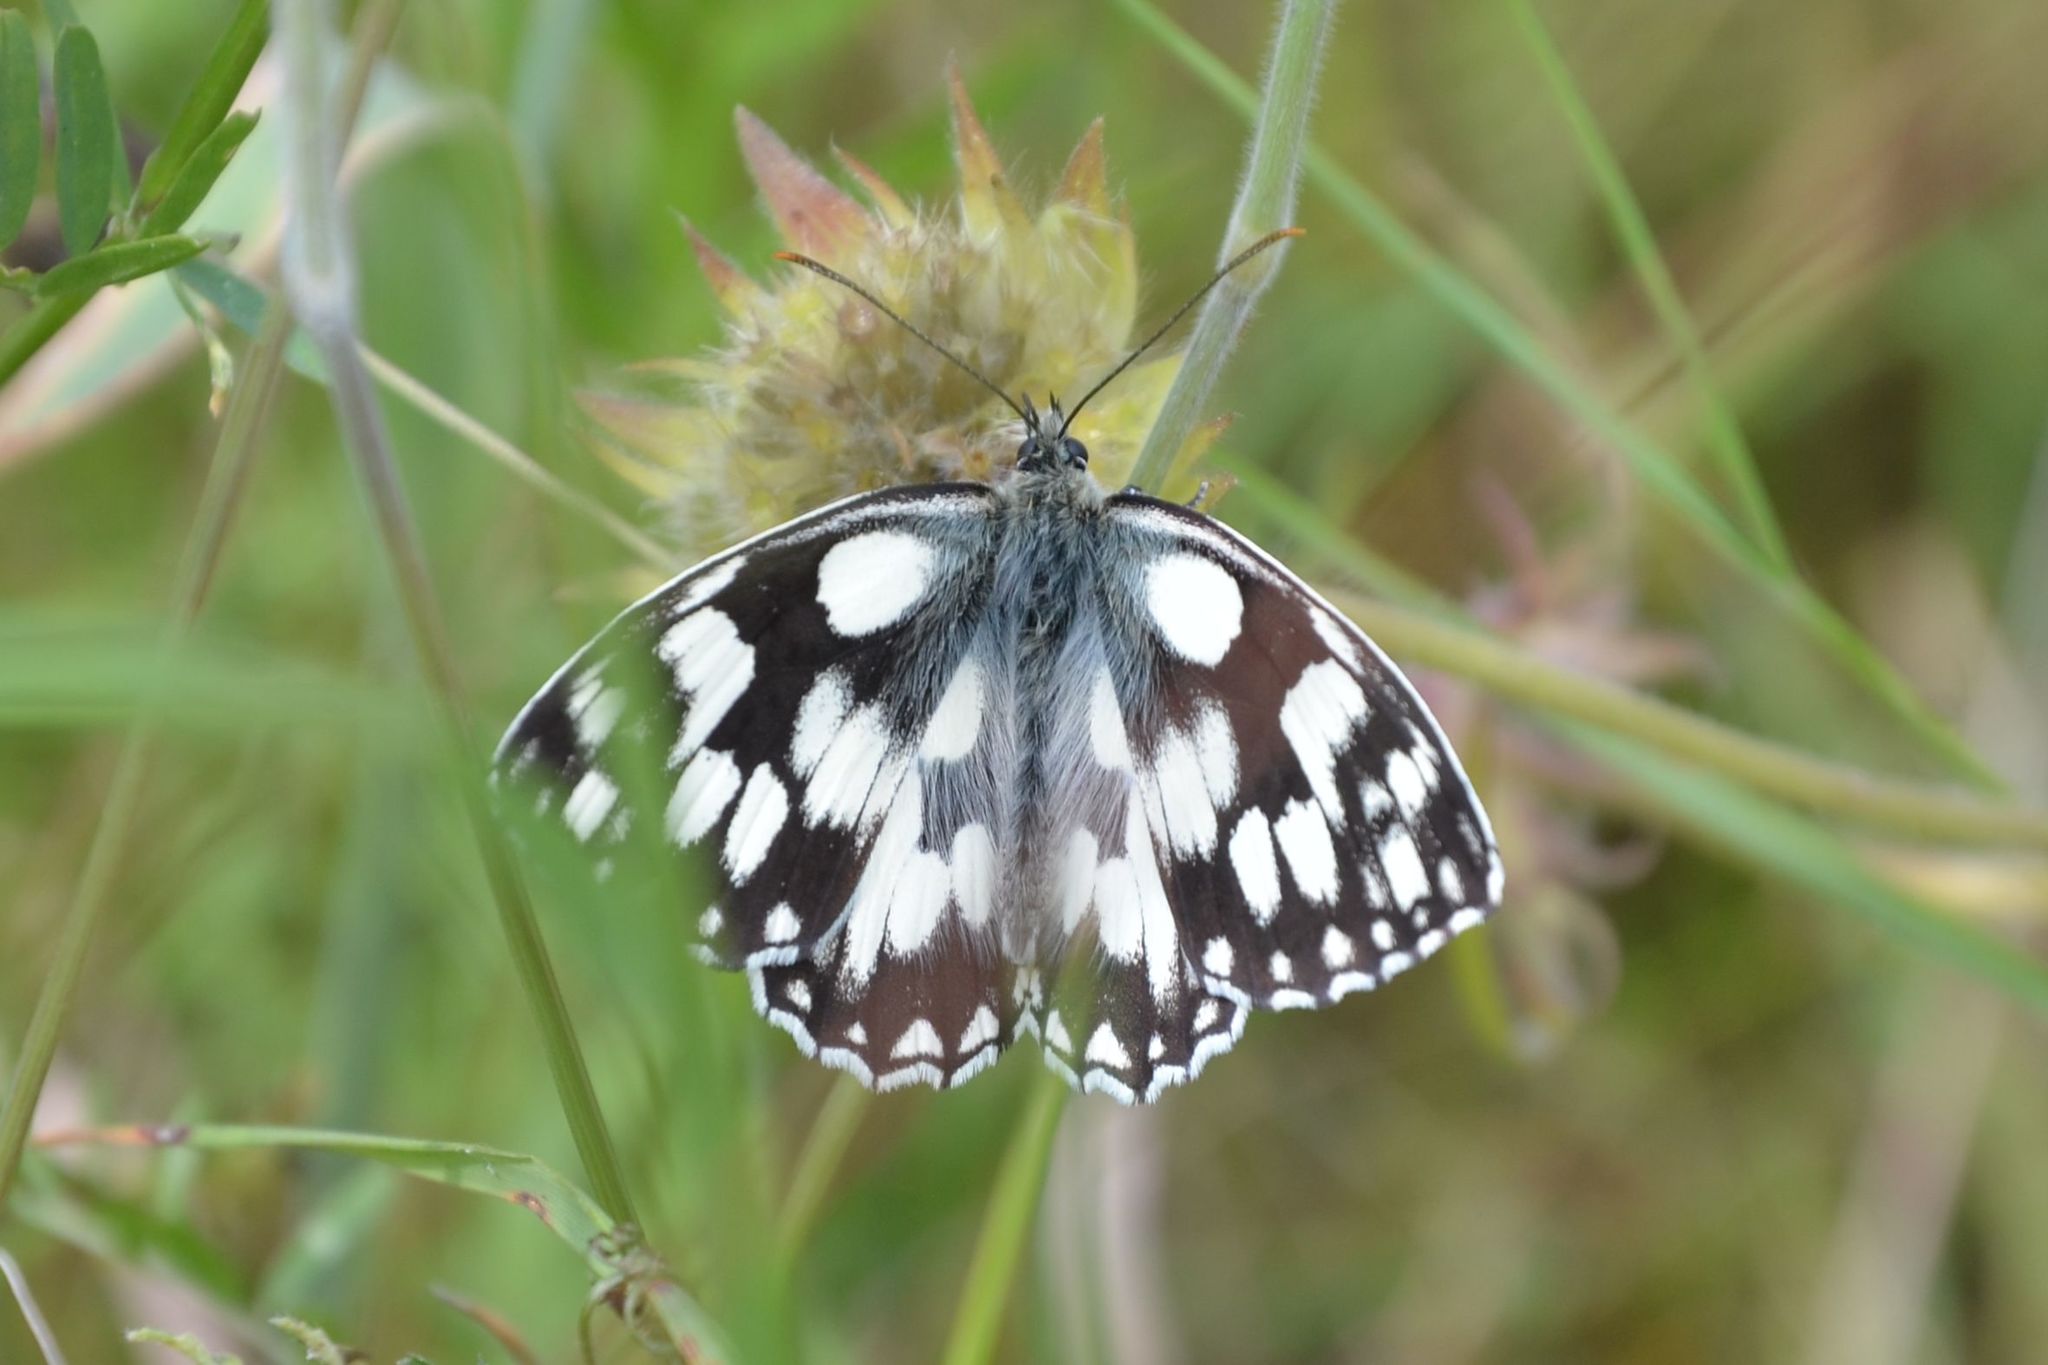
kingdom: Animalia
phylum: Arthropoda
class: Insecta
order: Lepidoptera
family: Nymphalidae
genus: Melanargia
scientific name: Melanargia galathea
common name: Marbled white
